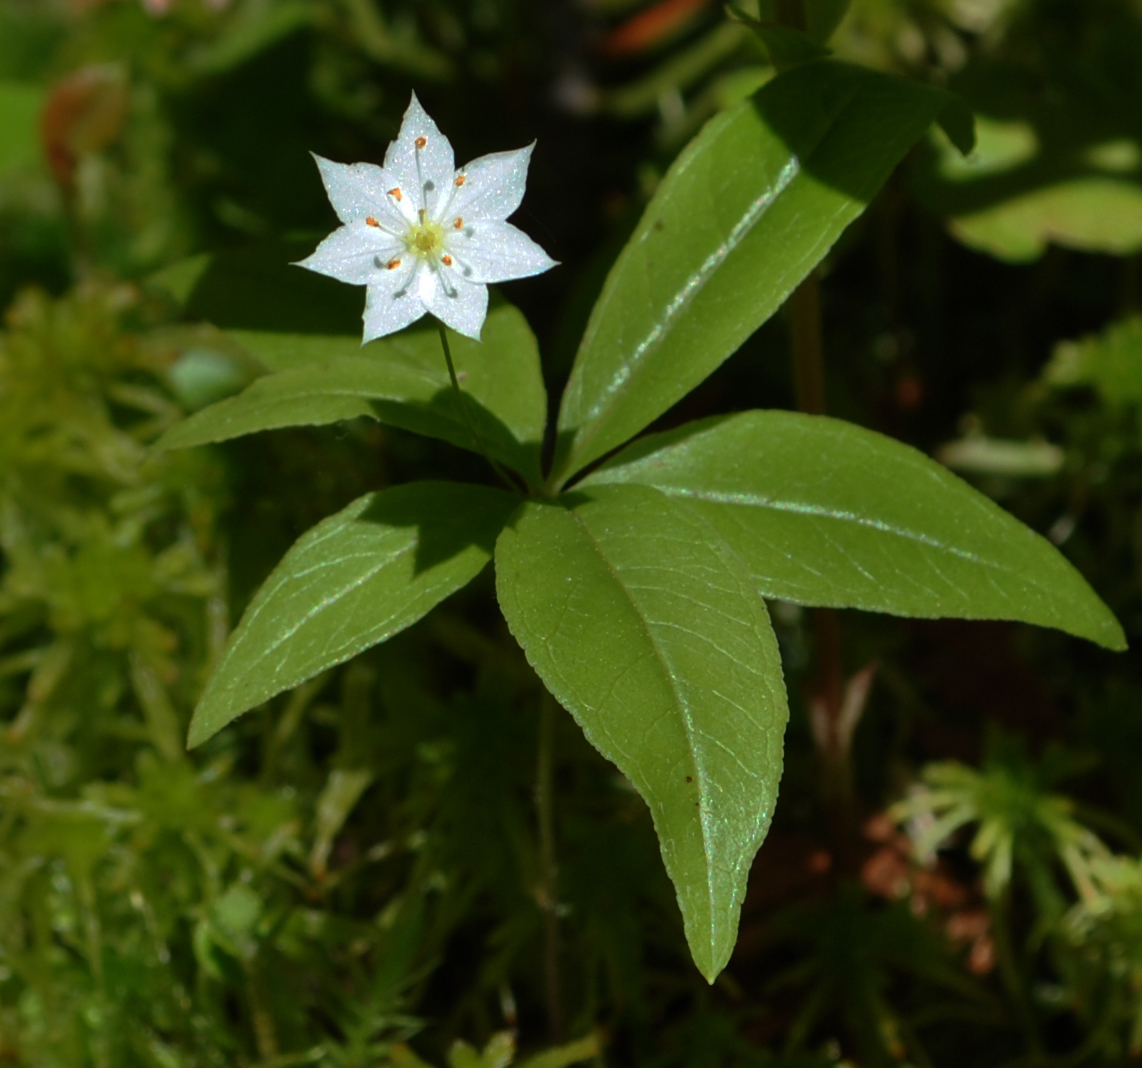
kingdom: Plantae
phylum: Tracheophyta
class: Magnoliopsida
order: Ericales
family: Primulaceae
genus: Lysimachia
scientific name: Lysimachia borealis
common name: American starflower
